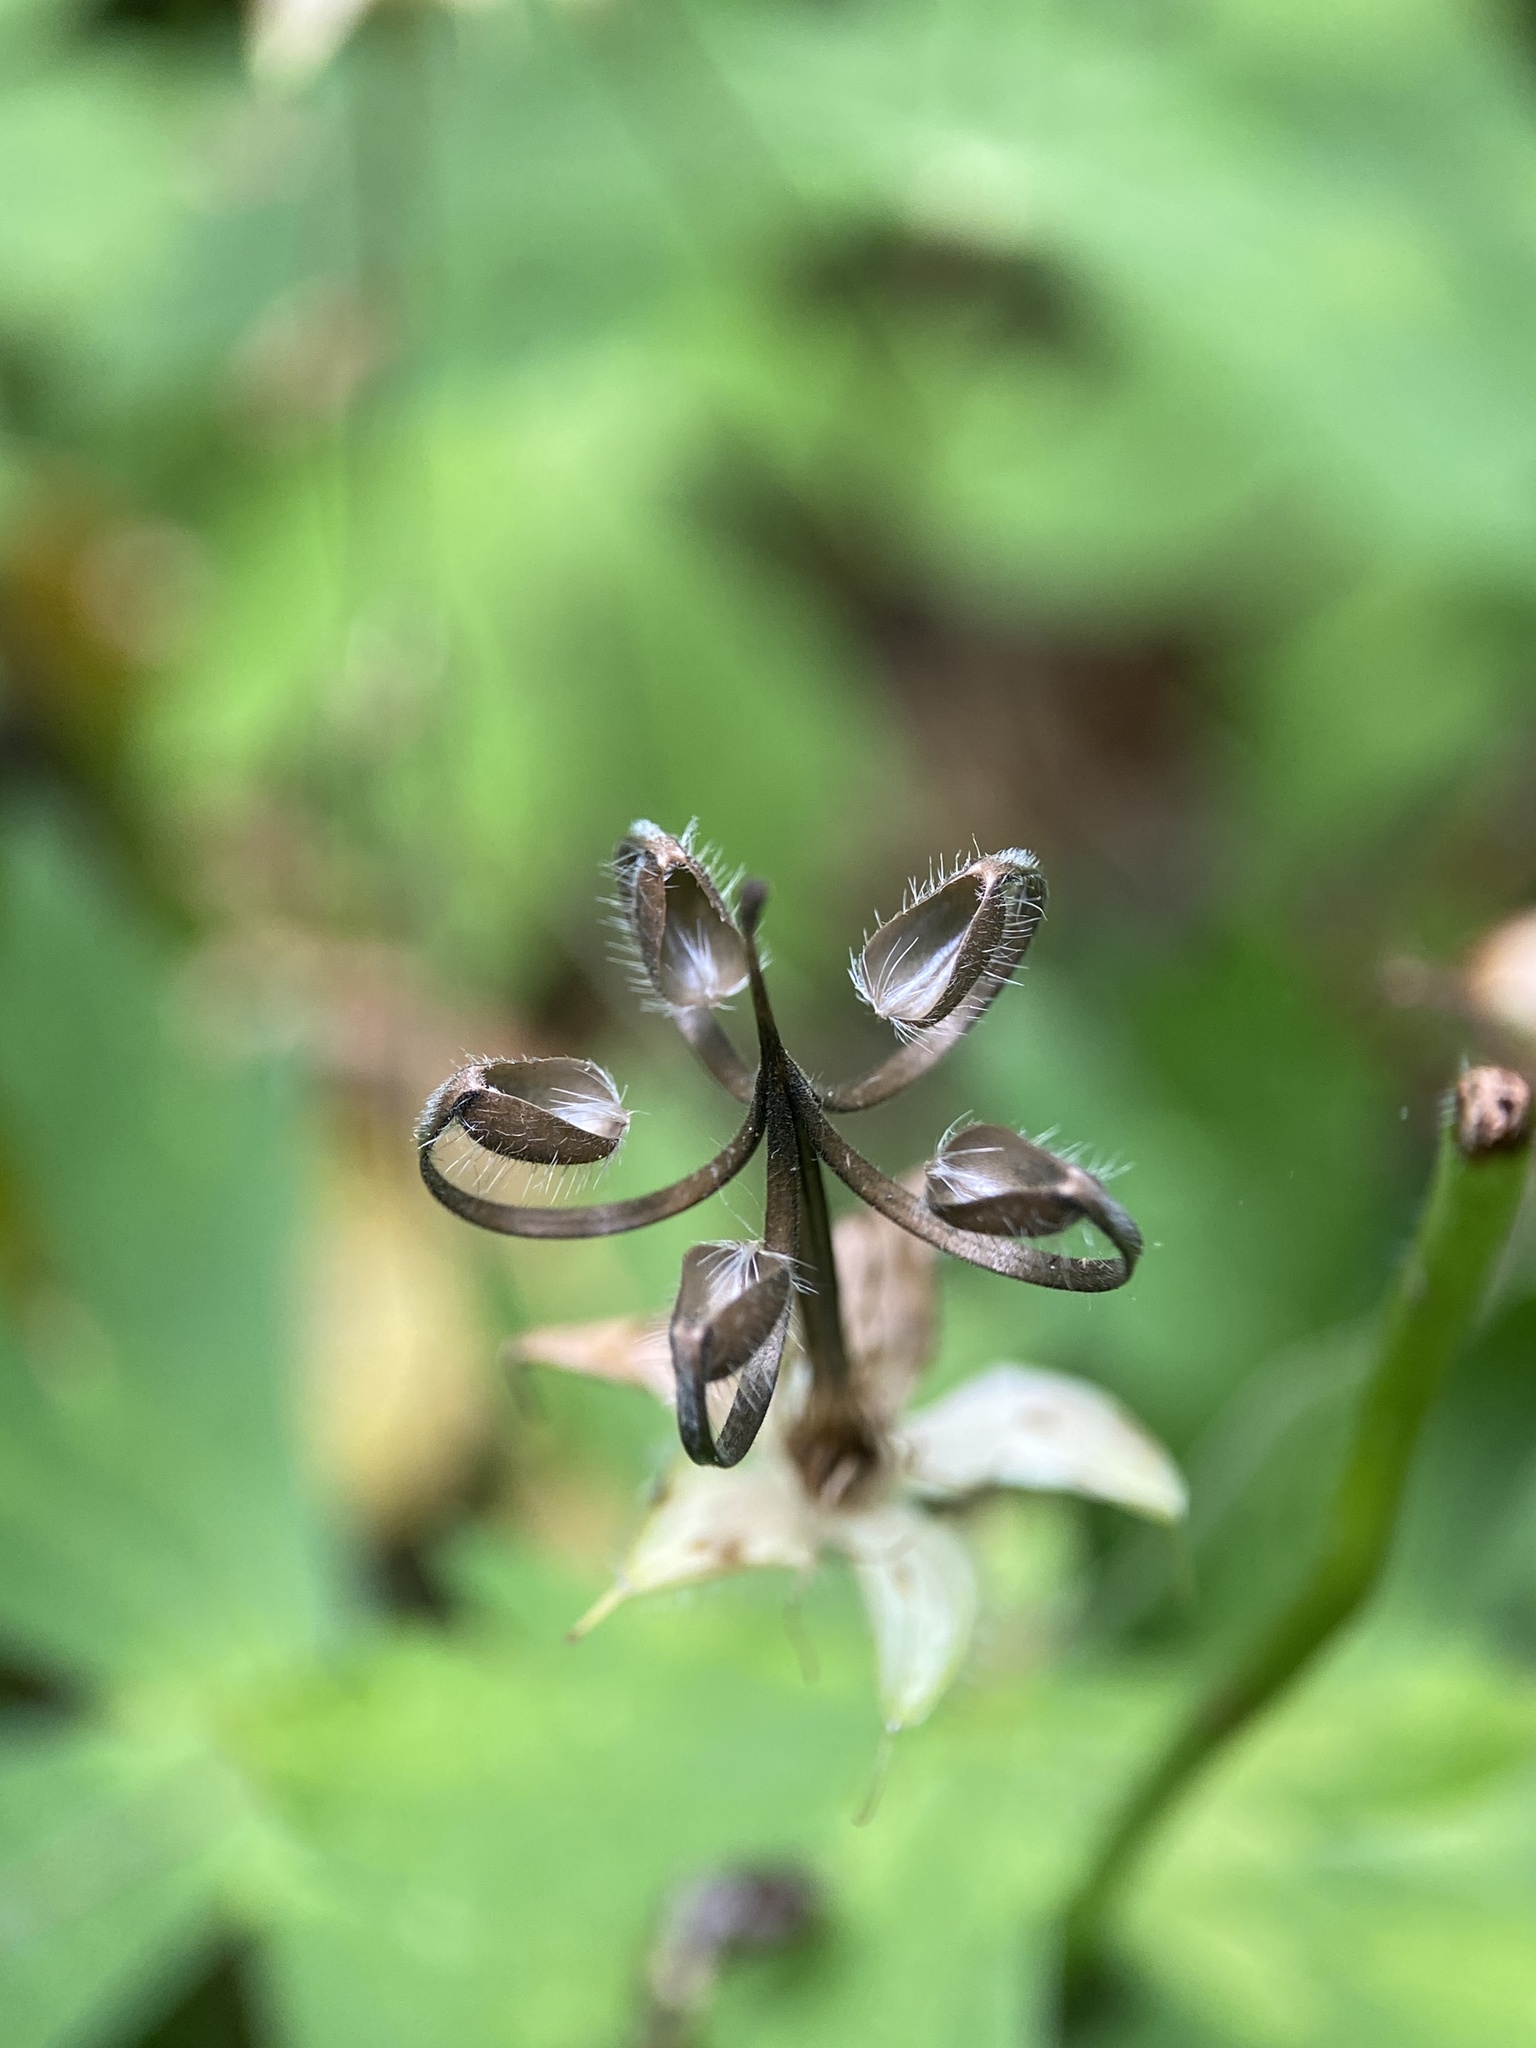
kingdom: Plantae
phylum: Tracheophyta
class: Magnoliopsida
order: Geraniales
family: Geraniaceae
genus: Geranium
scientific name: Geranium maculatum
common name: Spotted geranium
